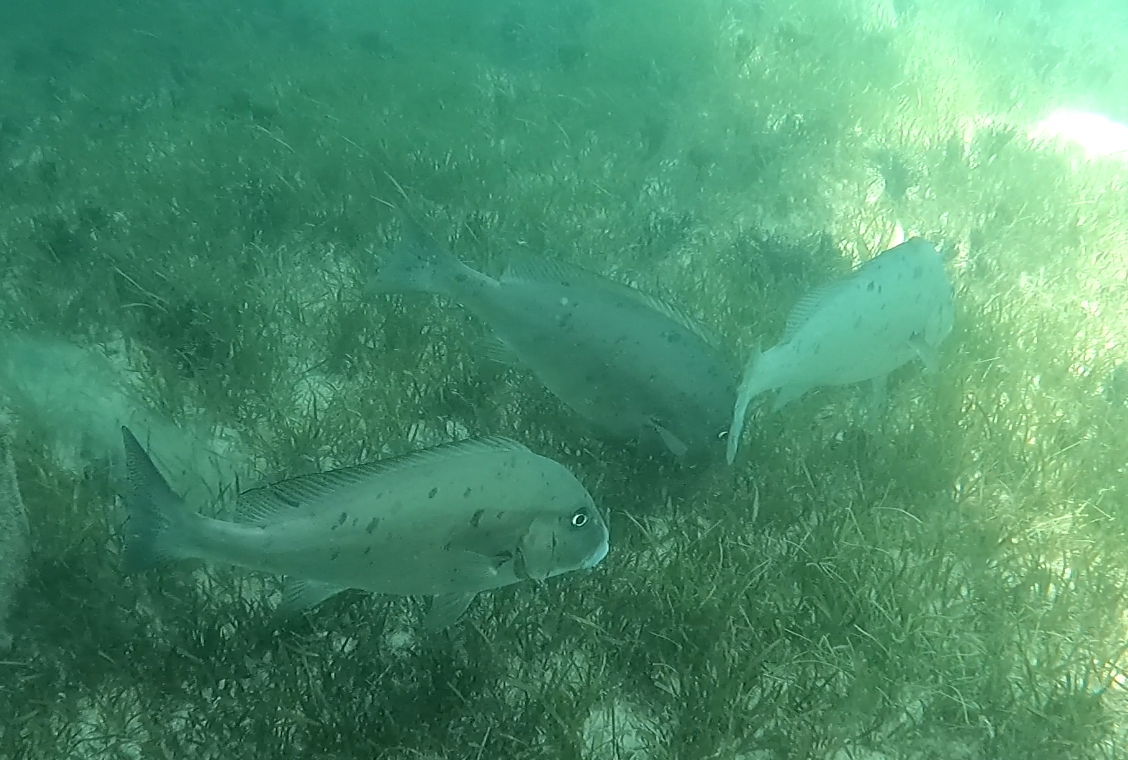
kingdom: Animalia
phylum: Chordata
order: Perciformes
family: Haemulidae
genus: Diagramma
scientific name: Diagramma pictum
